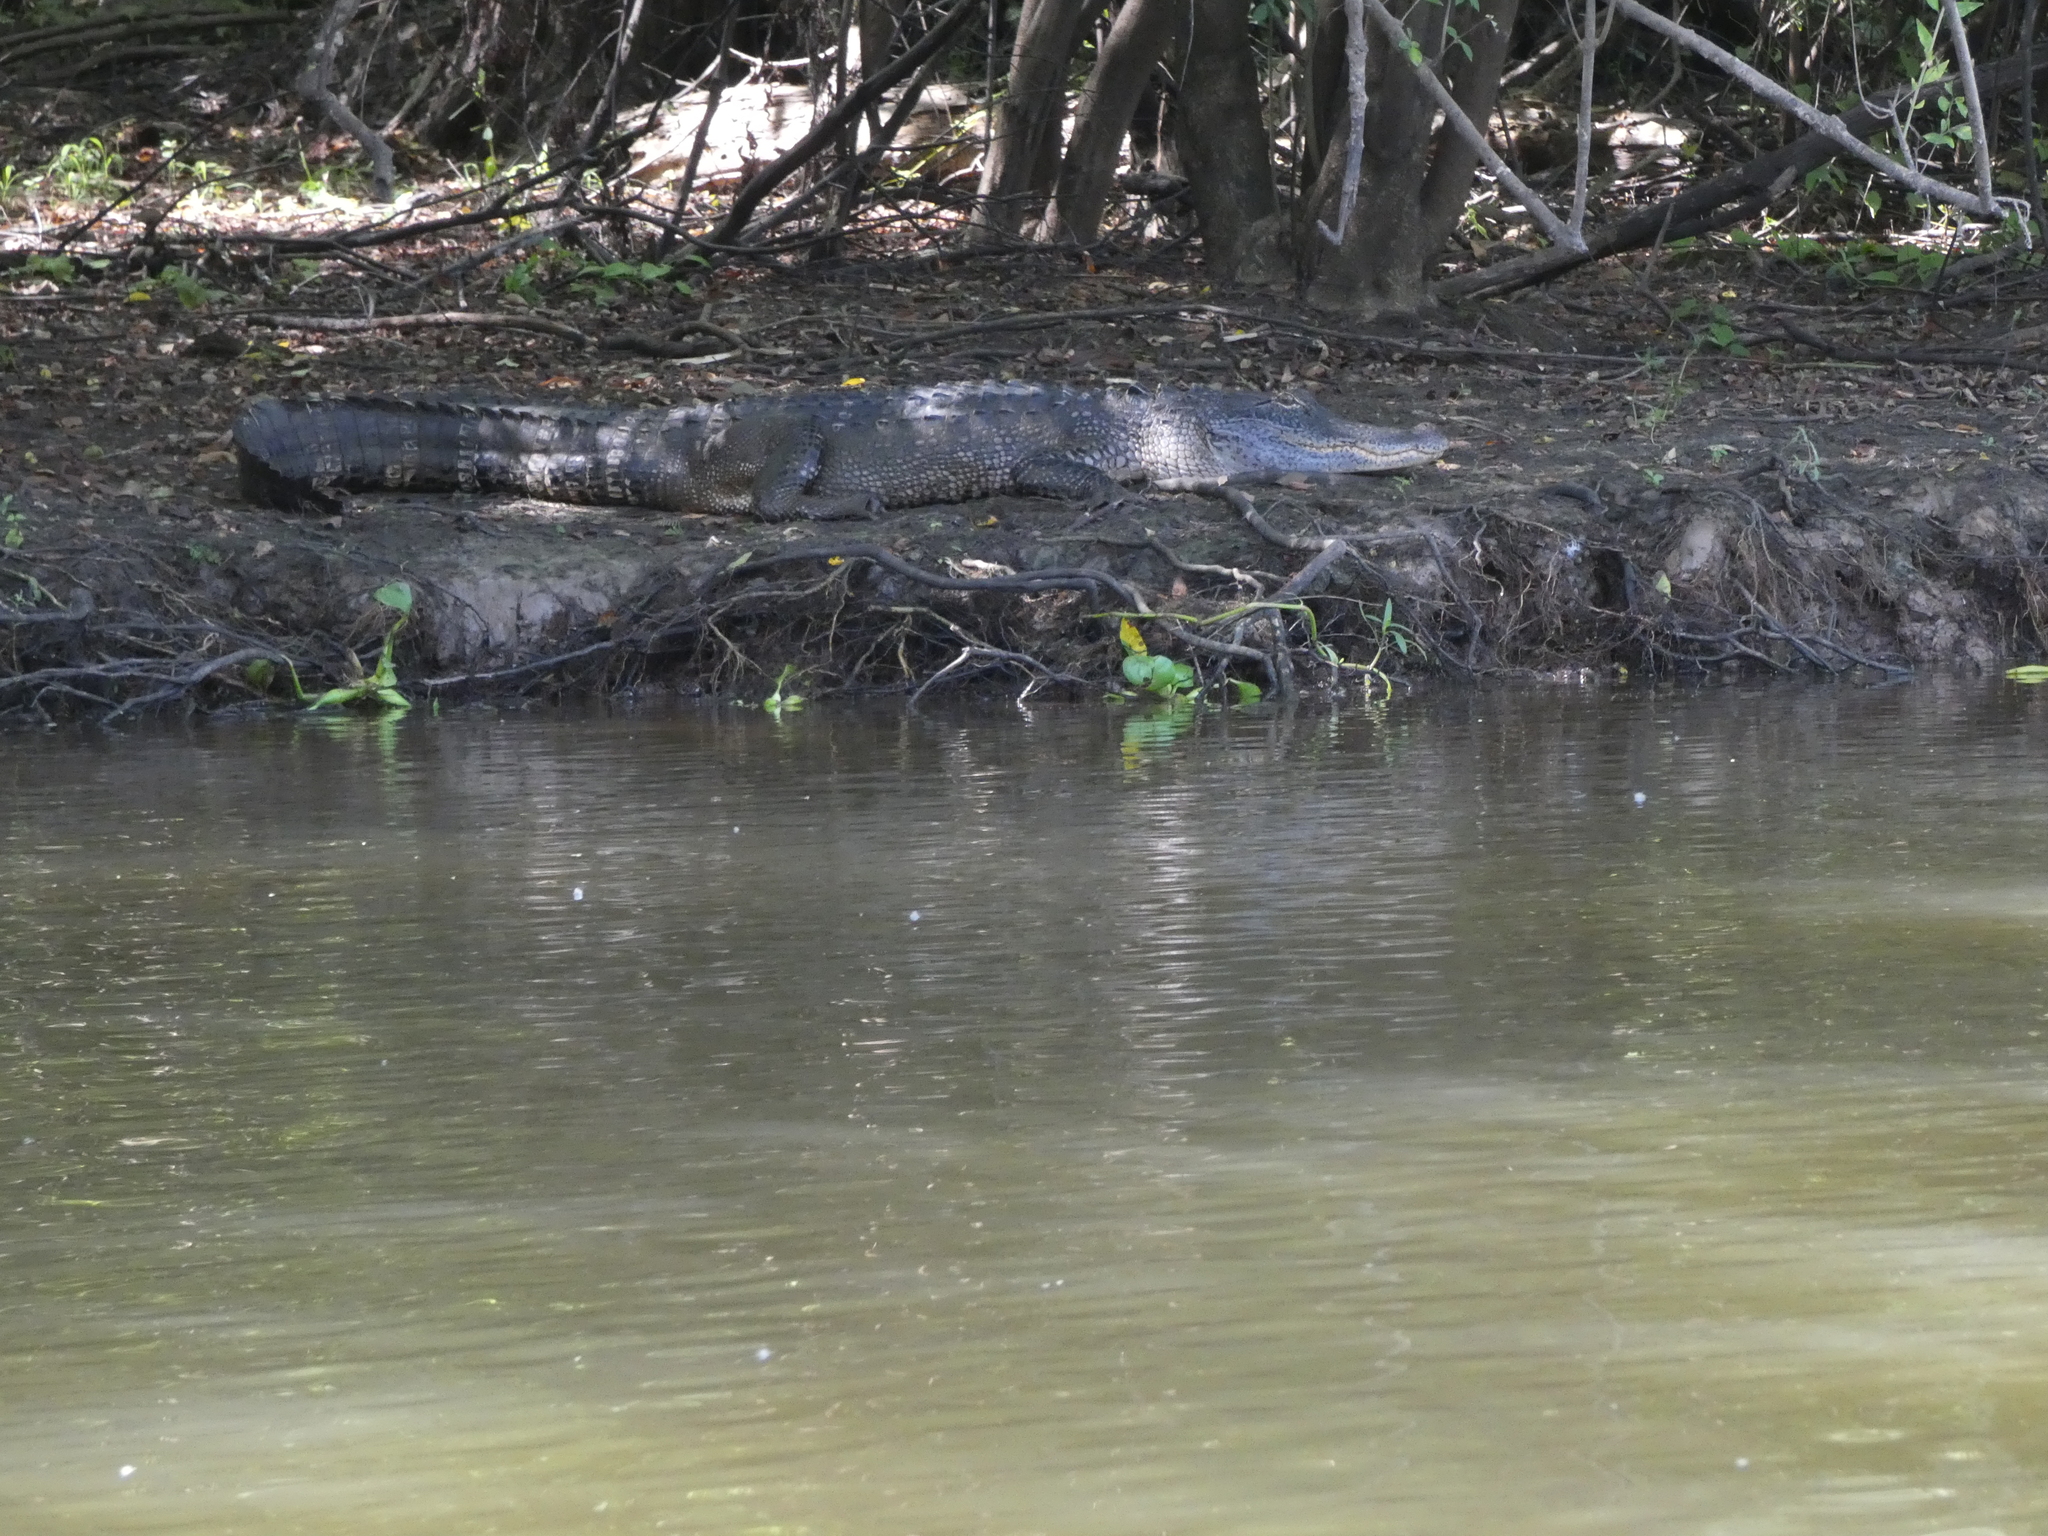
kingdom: Animalia
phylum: Chordata
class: Crocodylia
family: Alligatoridae
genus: Alligator
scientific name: Alligator mississippiensis
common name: American alligator
